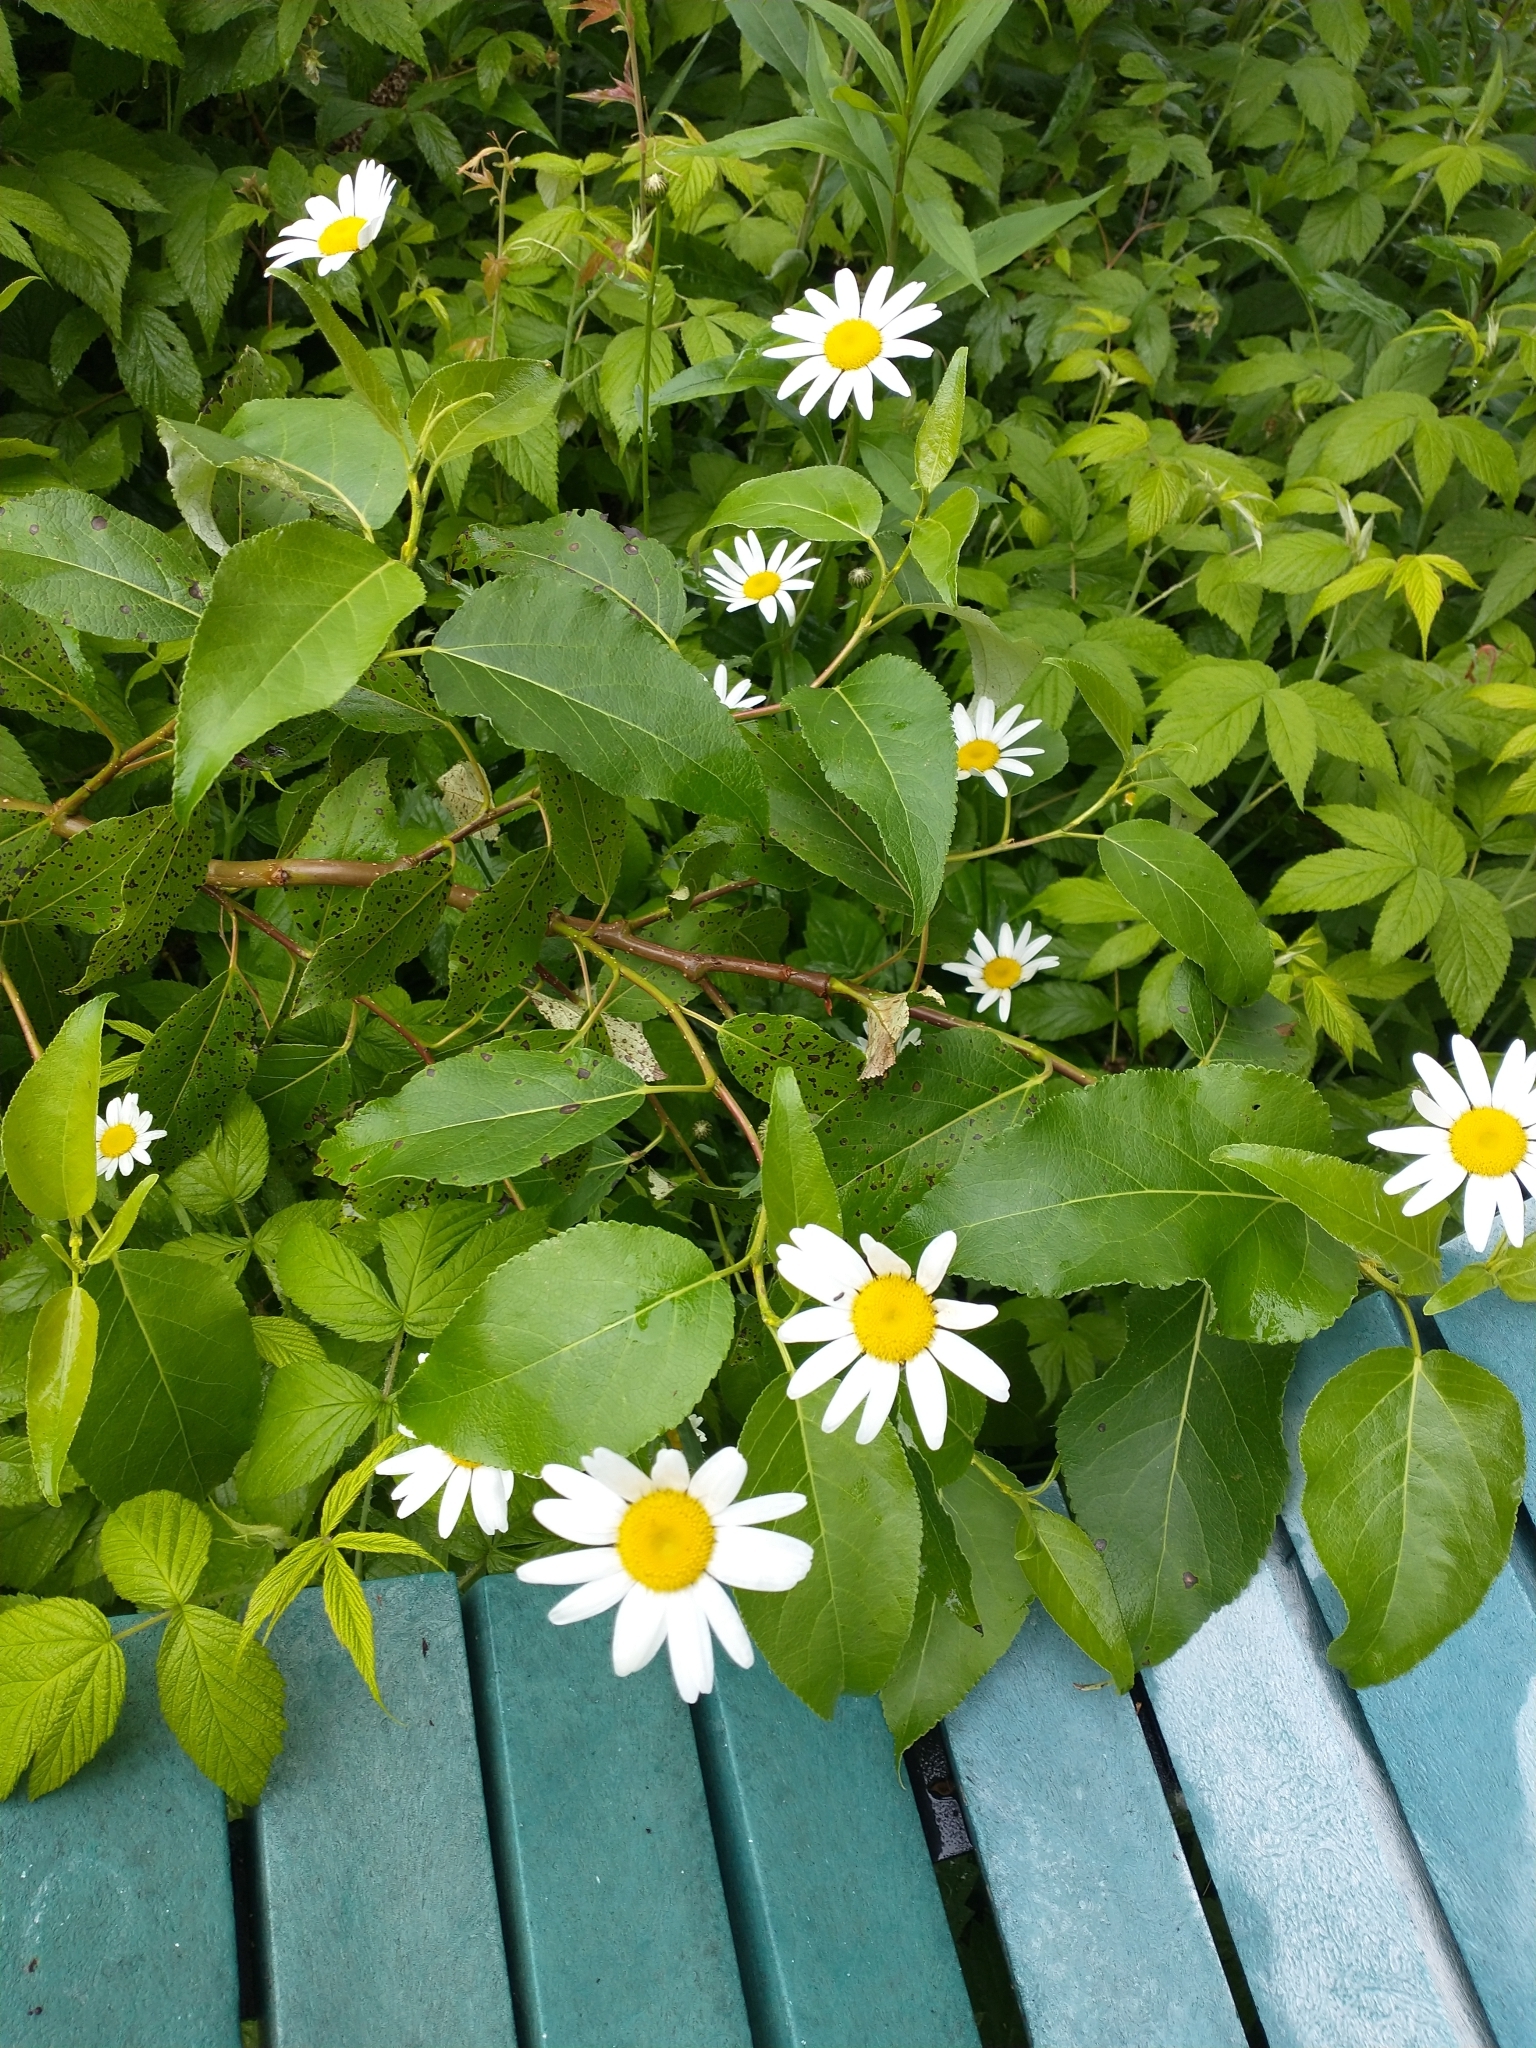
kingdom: Plantae
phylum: Tracheophyta
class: Magnoliopsida
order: Asterales
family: Asteraceae
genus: Leucanthemum
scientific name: Leucanthemum vulgare
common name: Oxeye daisy
